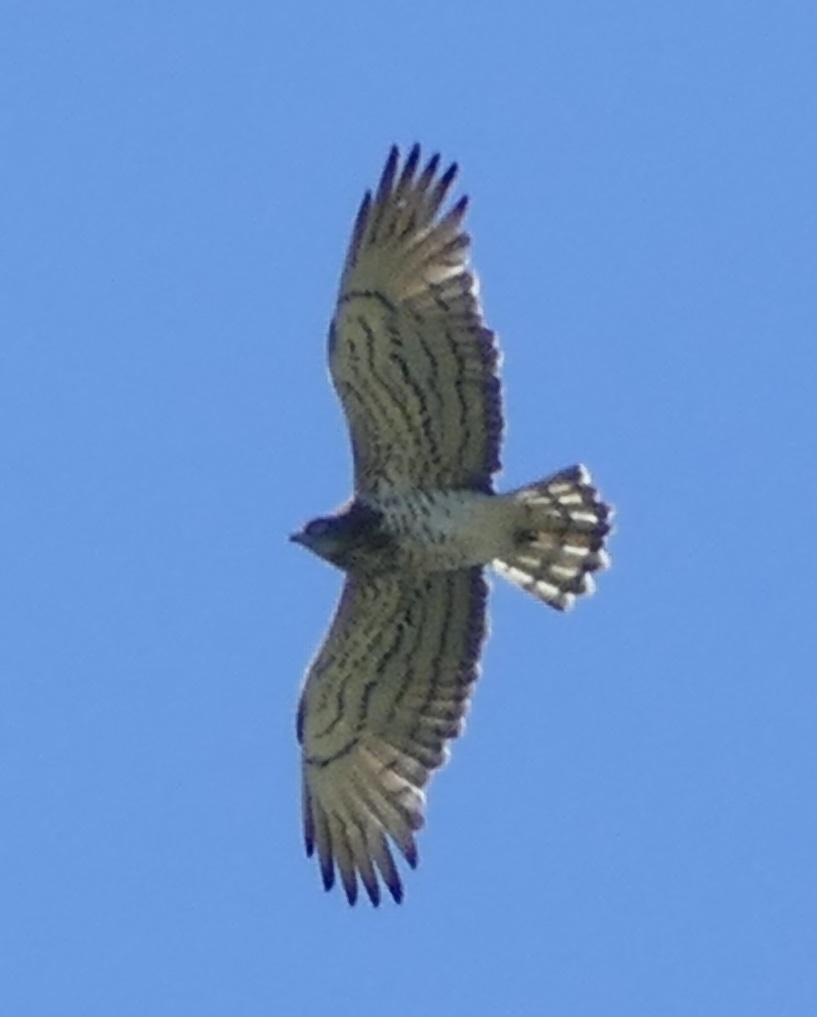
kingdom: Animalia
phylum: Chordata
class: Aves
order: Accipitriformes
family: Accipitridae
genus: Circaetus
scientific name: Circaetus gallicus
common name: Short-toed snake eagle
